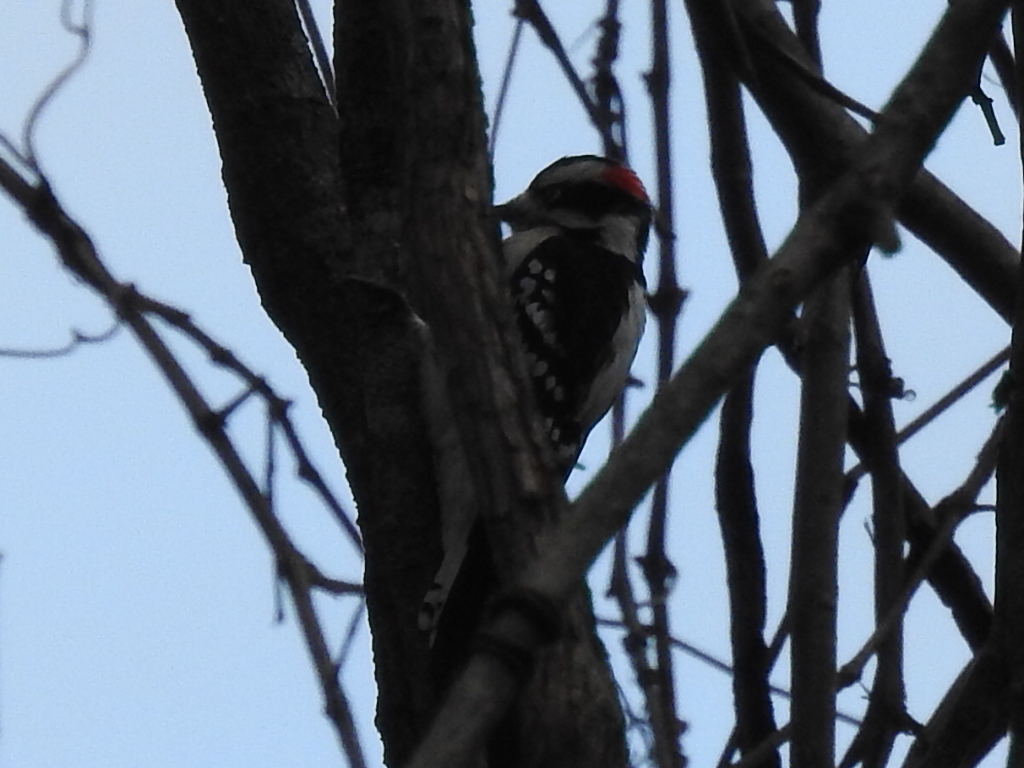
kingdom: Animalia
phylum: Chordata
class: Aves
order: Piciformes
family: Picidae
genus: Dryobates
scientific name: Dryobates pubescens
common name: Downy woodpecker
